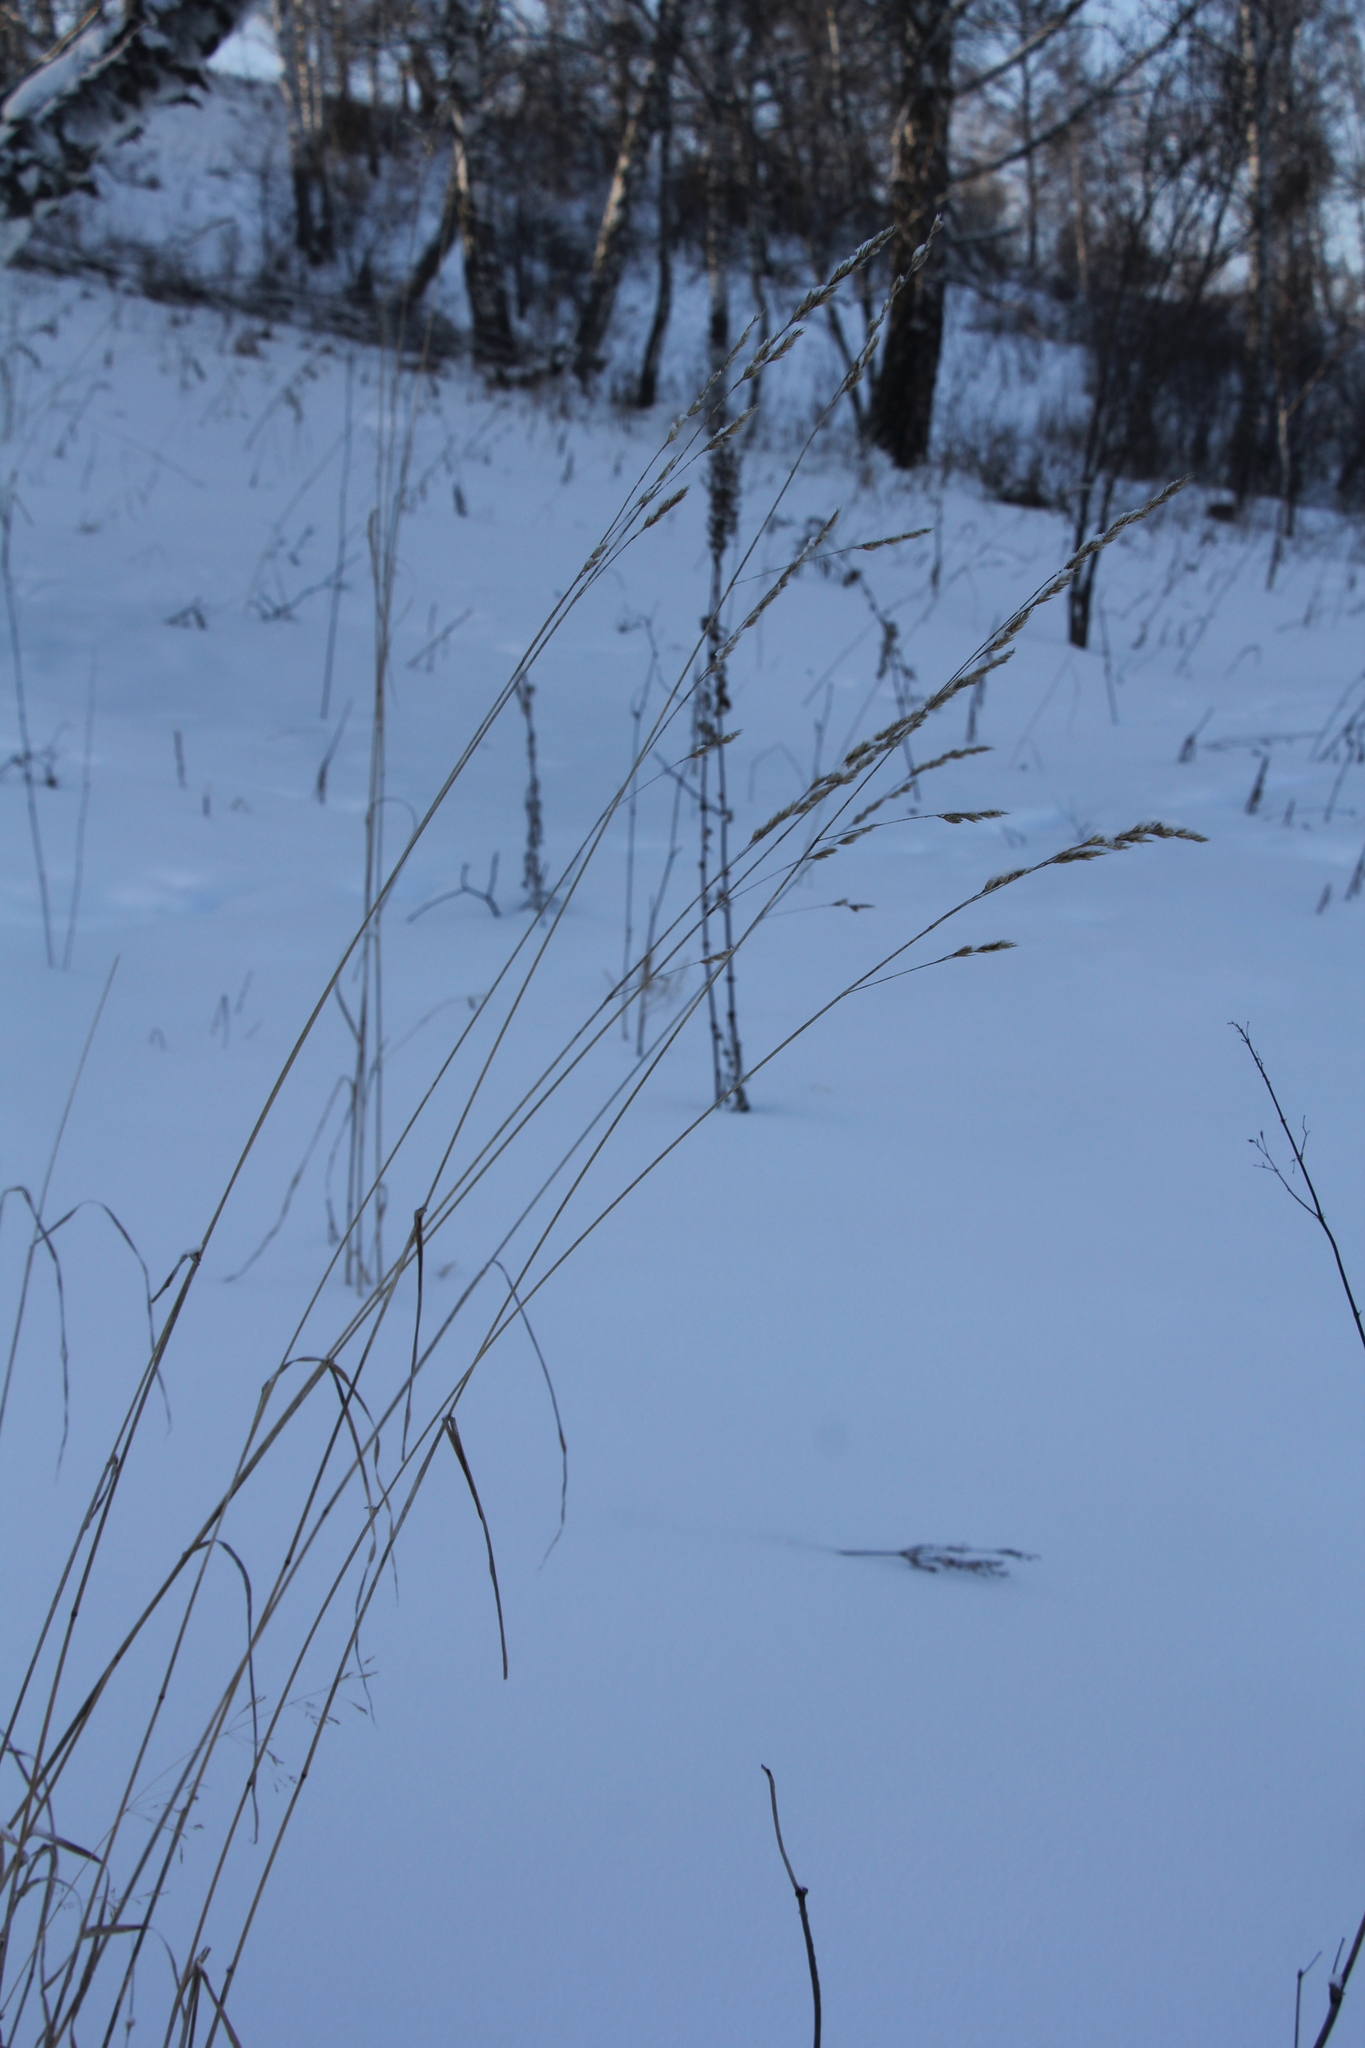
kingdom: Plantae
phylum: Tracheophyta
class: Liliopsida
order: Poales
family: Poaceae
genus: Dactylis
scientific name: Dactylis glomerata
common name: Orchardgrass
